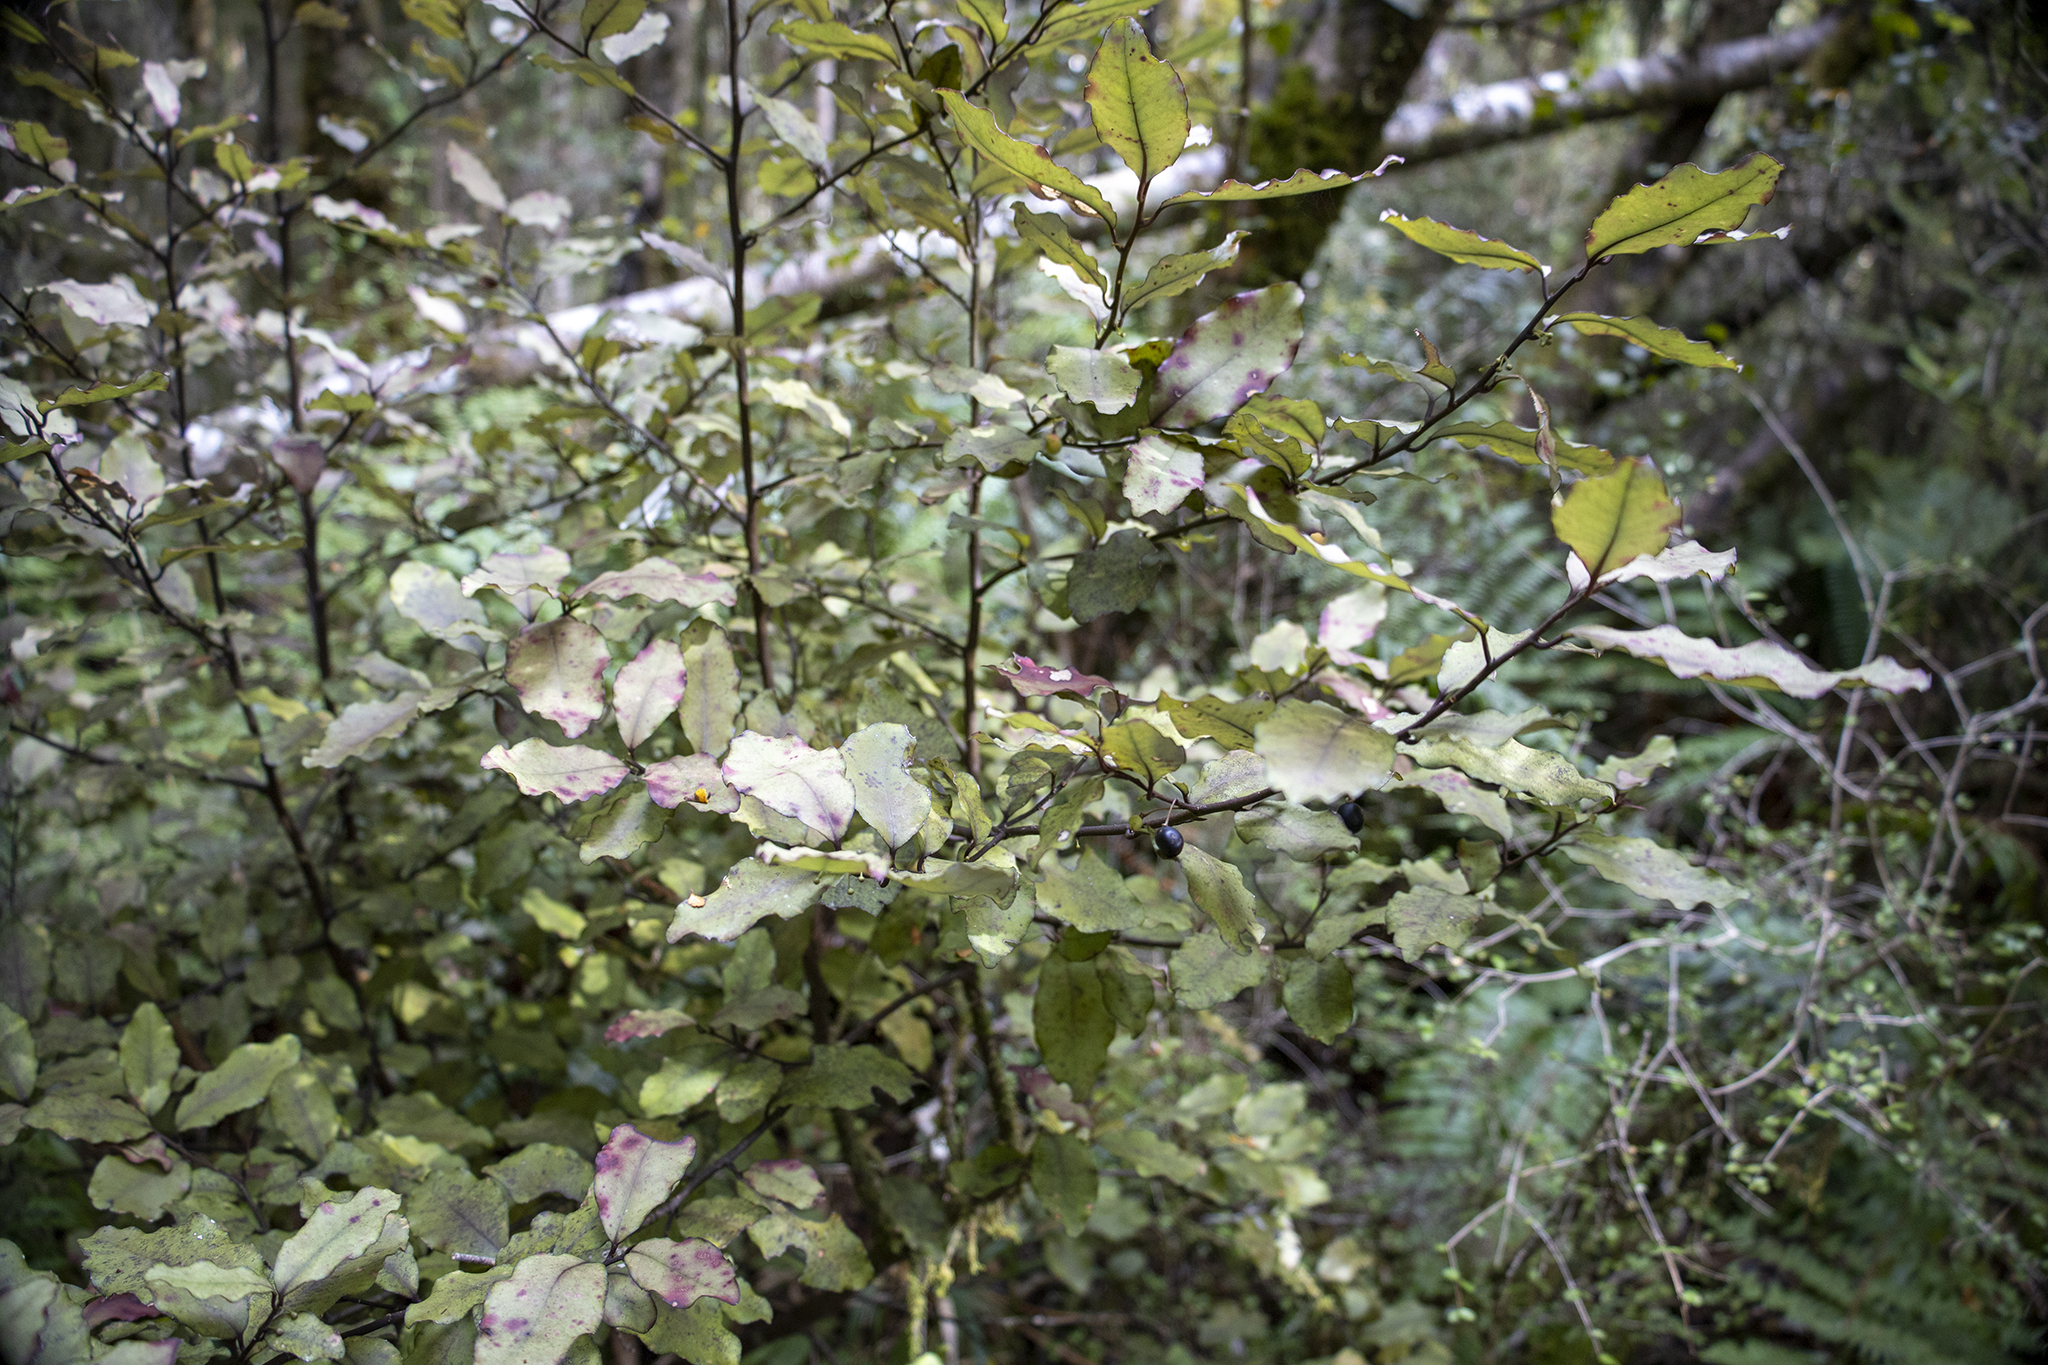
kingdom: Plantae
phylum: Tracheophyta
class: Magnoliopsida
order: Canellales
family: Winteraceae
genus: Pseudowintera
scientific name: Pseudowintera colorata
